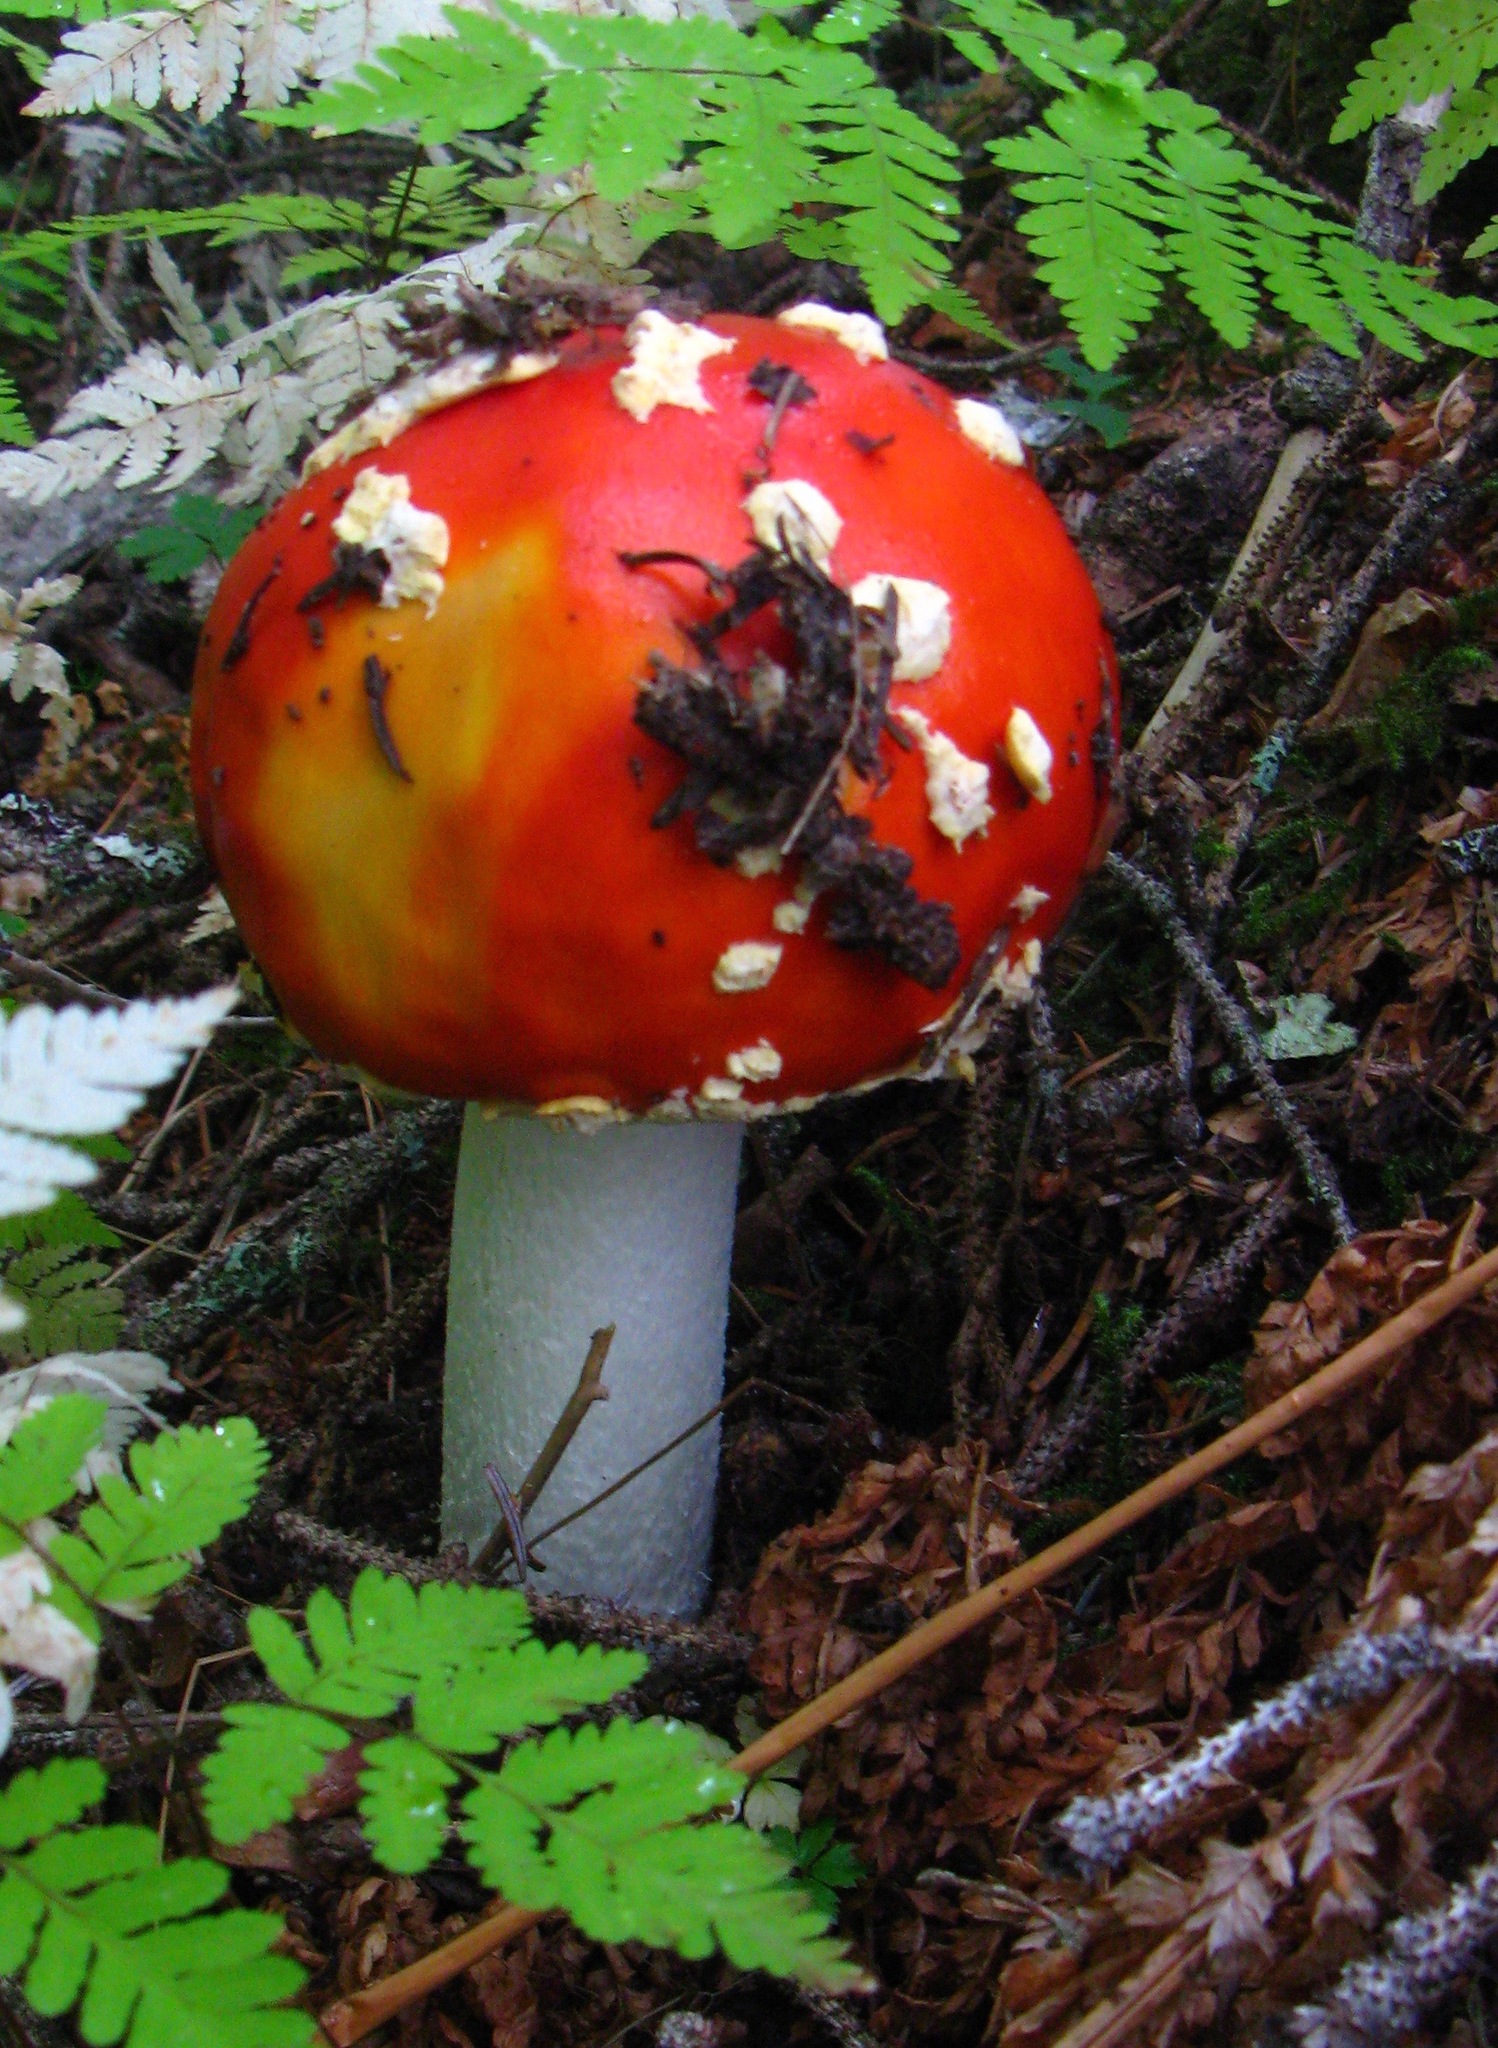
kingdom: Fungi
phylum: Basidiomycota
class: Agaricomycetes
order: Agaricales
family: Amanitaceae
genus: Amanita
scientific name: Amanita muscaria
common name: Fly agaric
